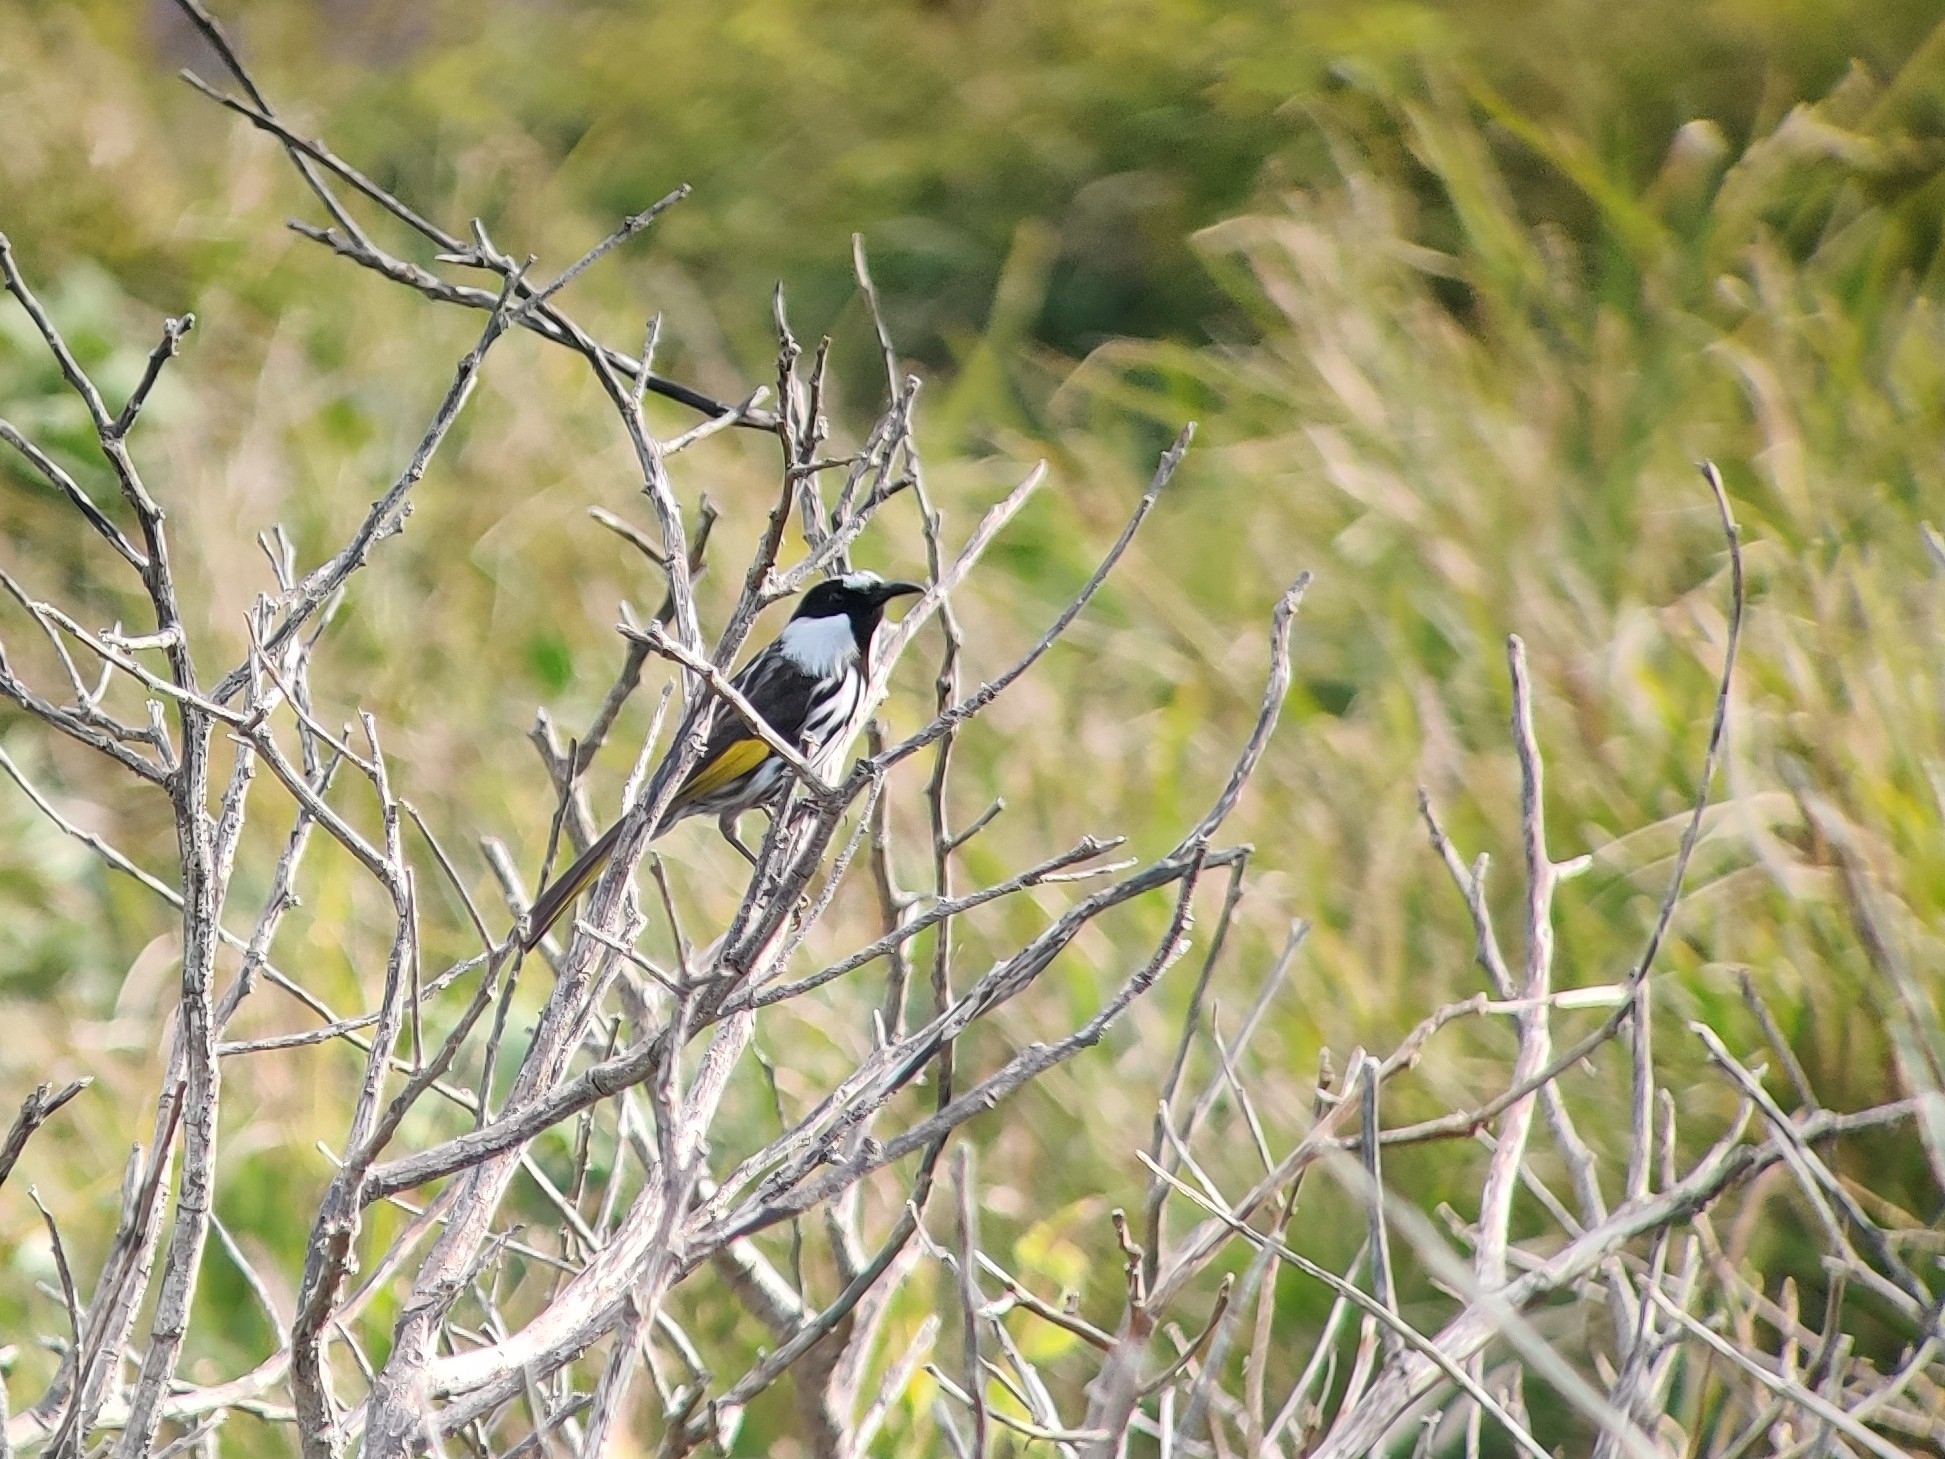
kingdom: Animalia
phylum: Chordata
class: Aves
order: Passeriformes
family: Meliphagidae
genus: Phylidonyris
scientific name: Phylidonyris niger
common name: White-cheeked honeyeater
